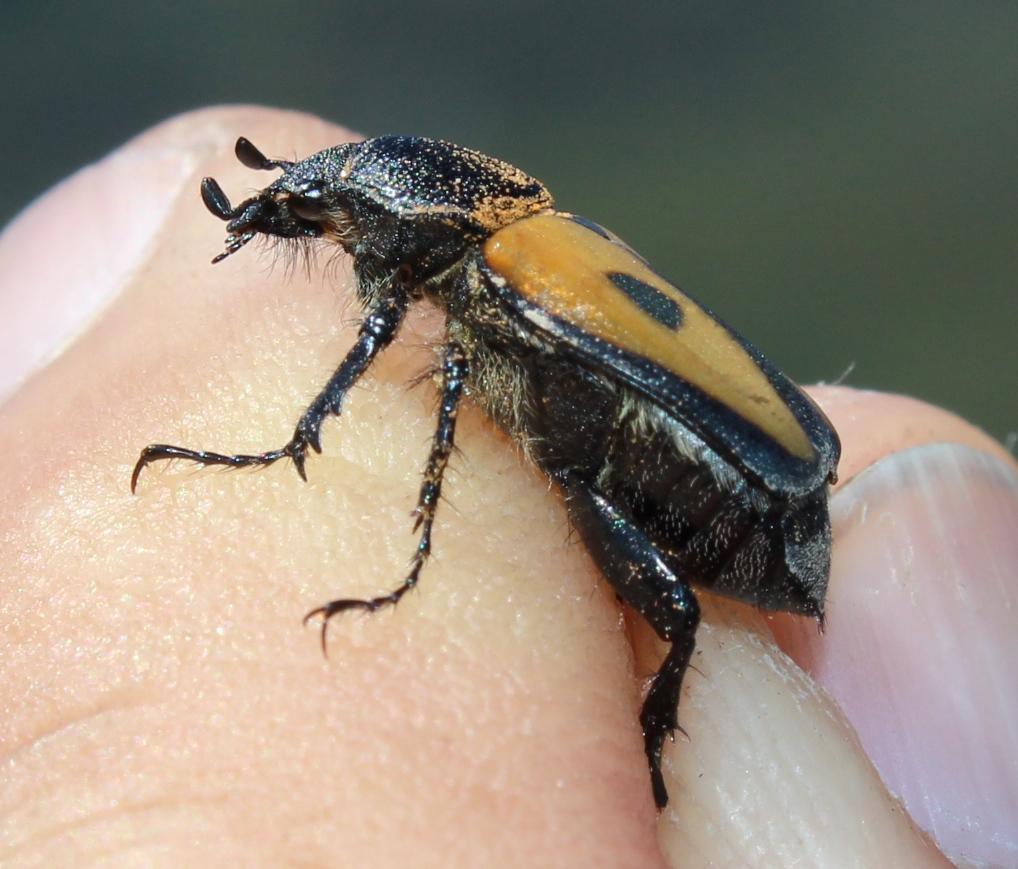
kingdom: Animalia
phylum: Arthropoda
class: Insecta
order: Coleoptera
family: Scarabaeidae
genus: Campulipus
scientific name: Campulipus limbatus
